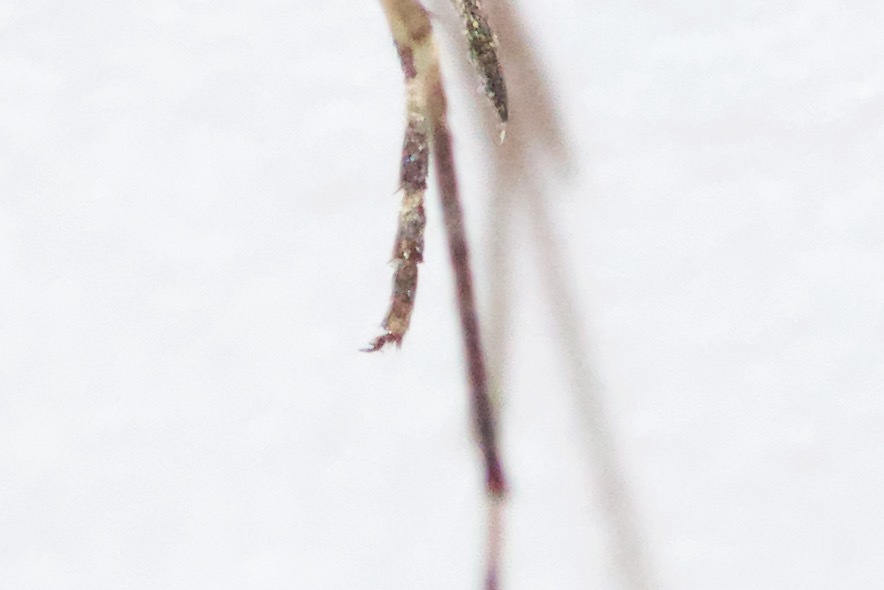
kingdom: Animalia
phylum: Arthropoda
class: Insecta
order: Diptera
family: Culicidae
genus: Aedes
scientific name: Aedes stimulans
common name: Woodland mosquito
